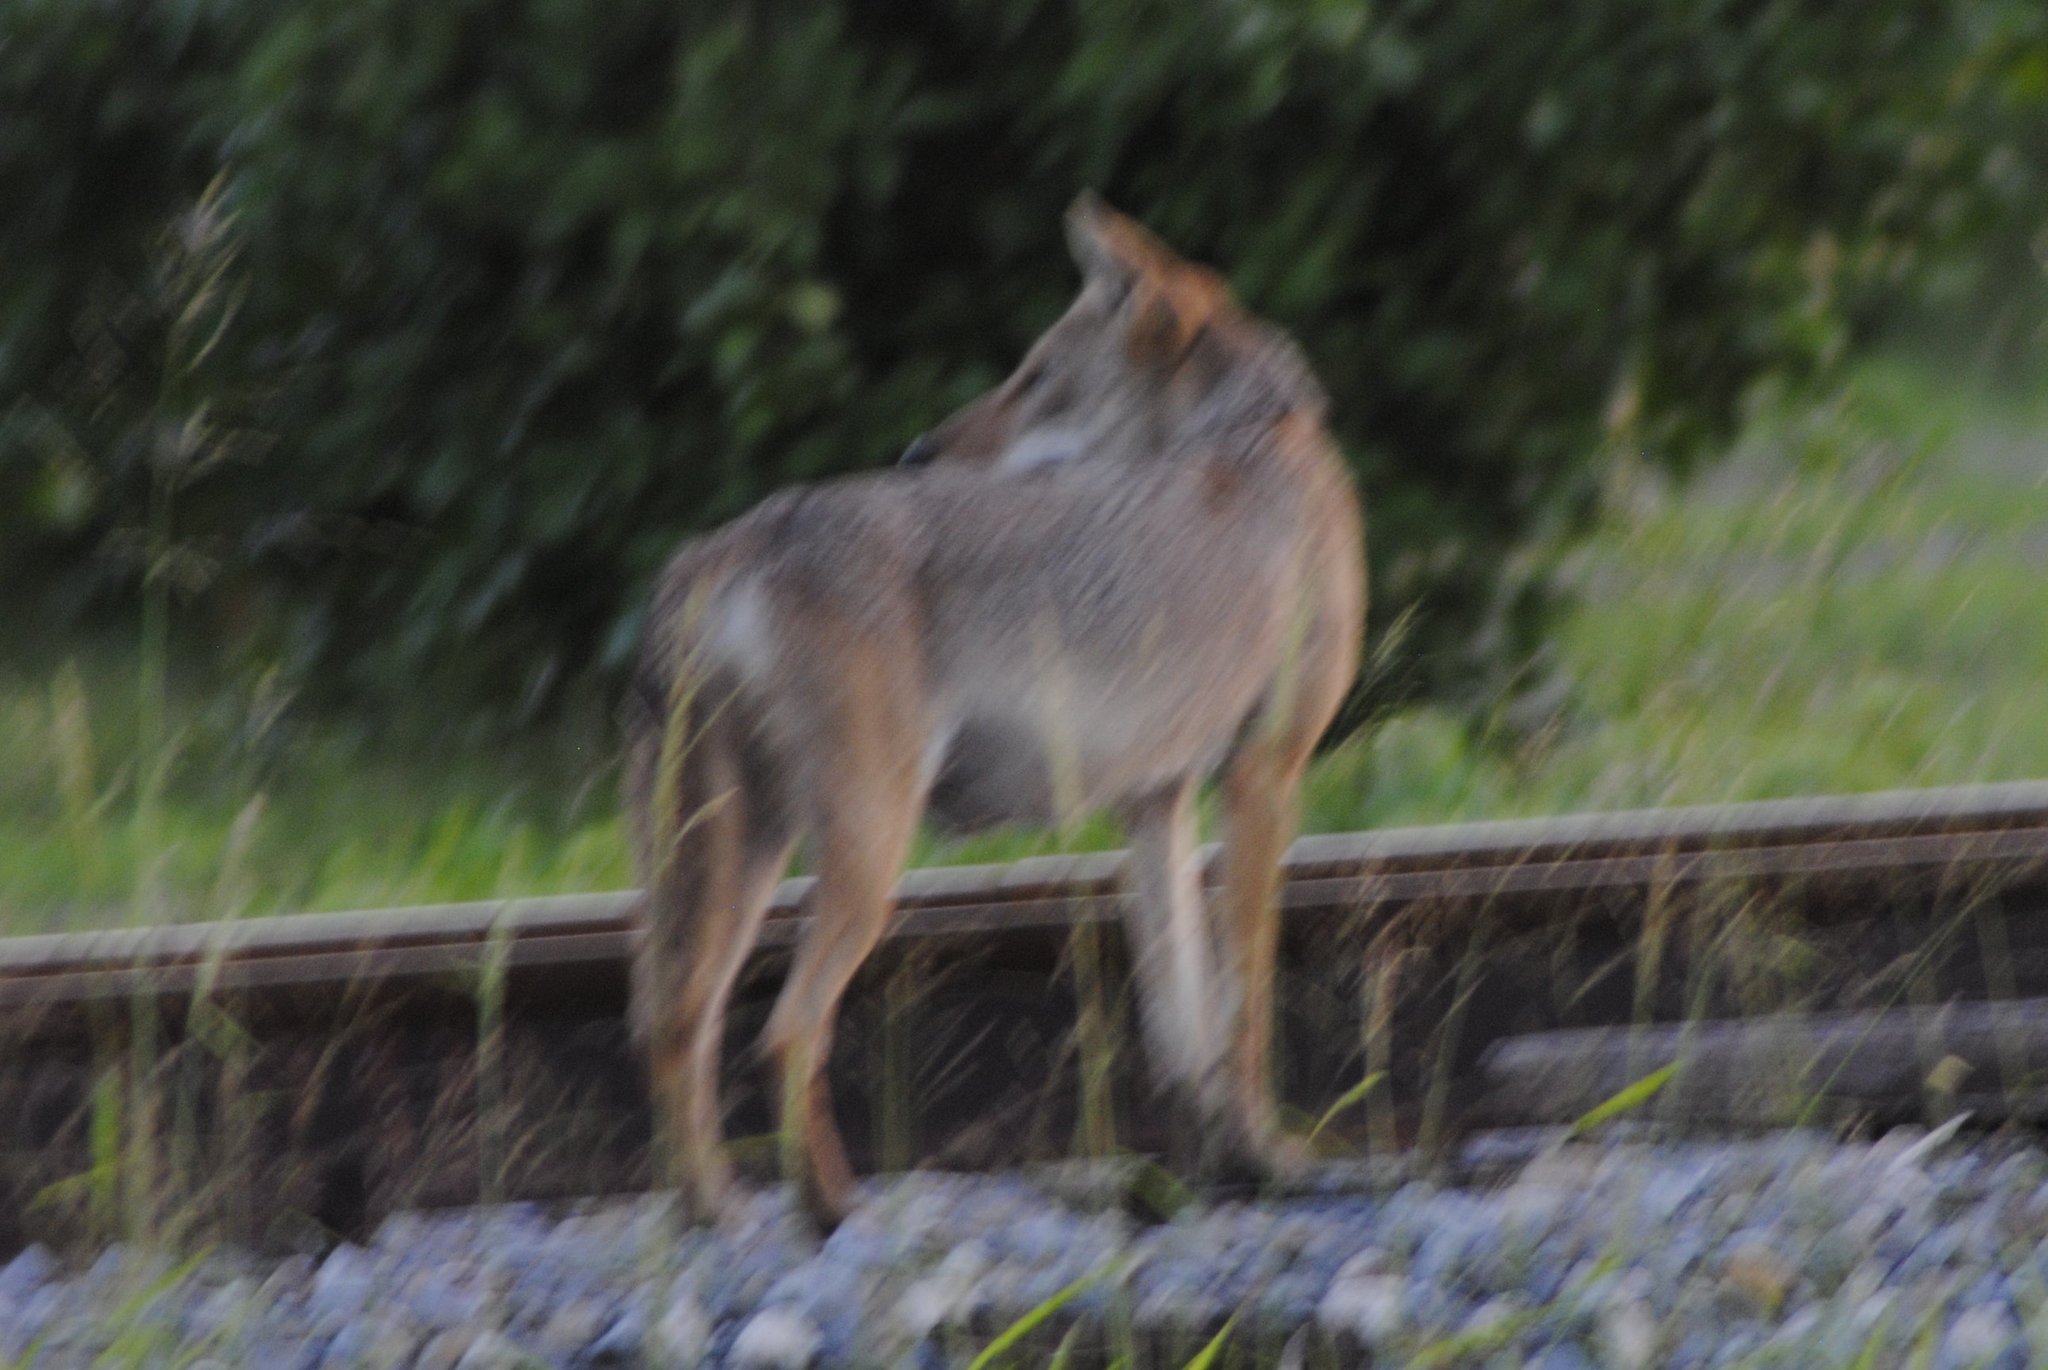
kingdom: Animalia
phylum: Chordata
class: Mammalia
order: Carnivora
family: Canidae
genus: Canis
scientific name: Canis latrans
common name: Coyote
